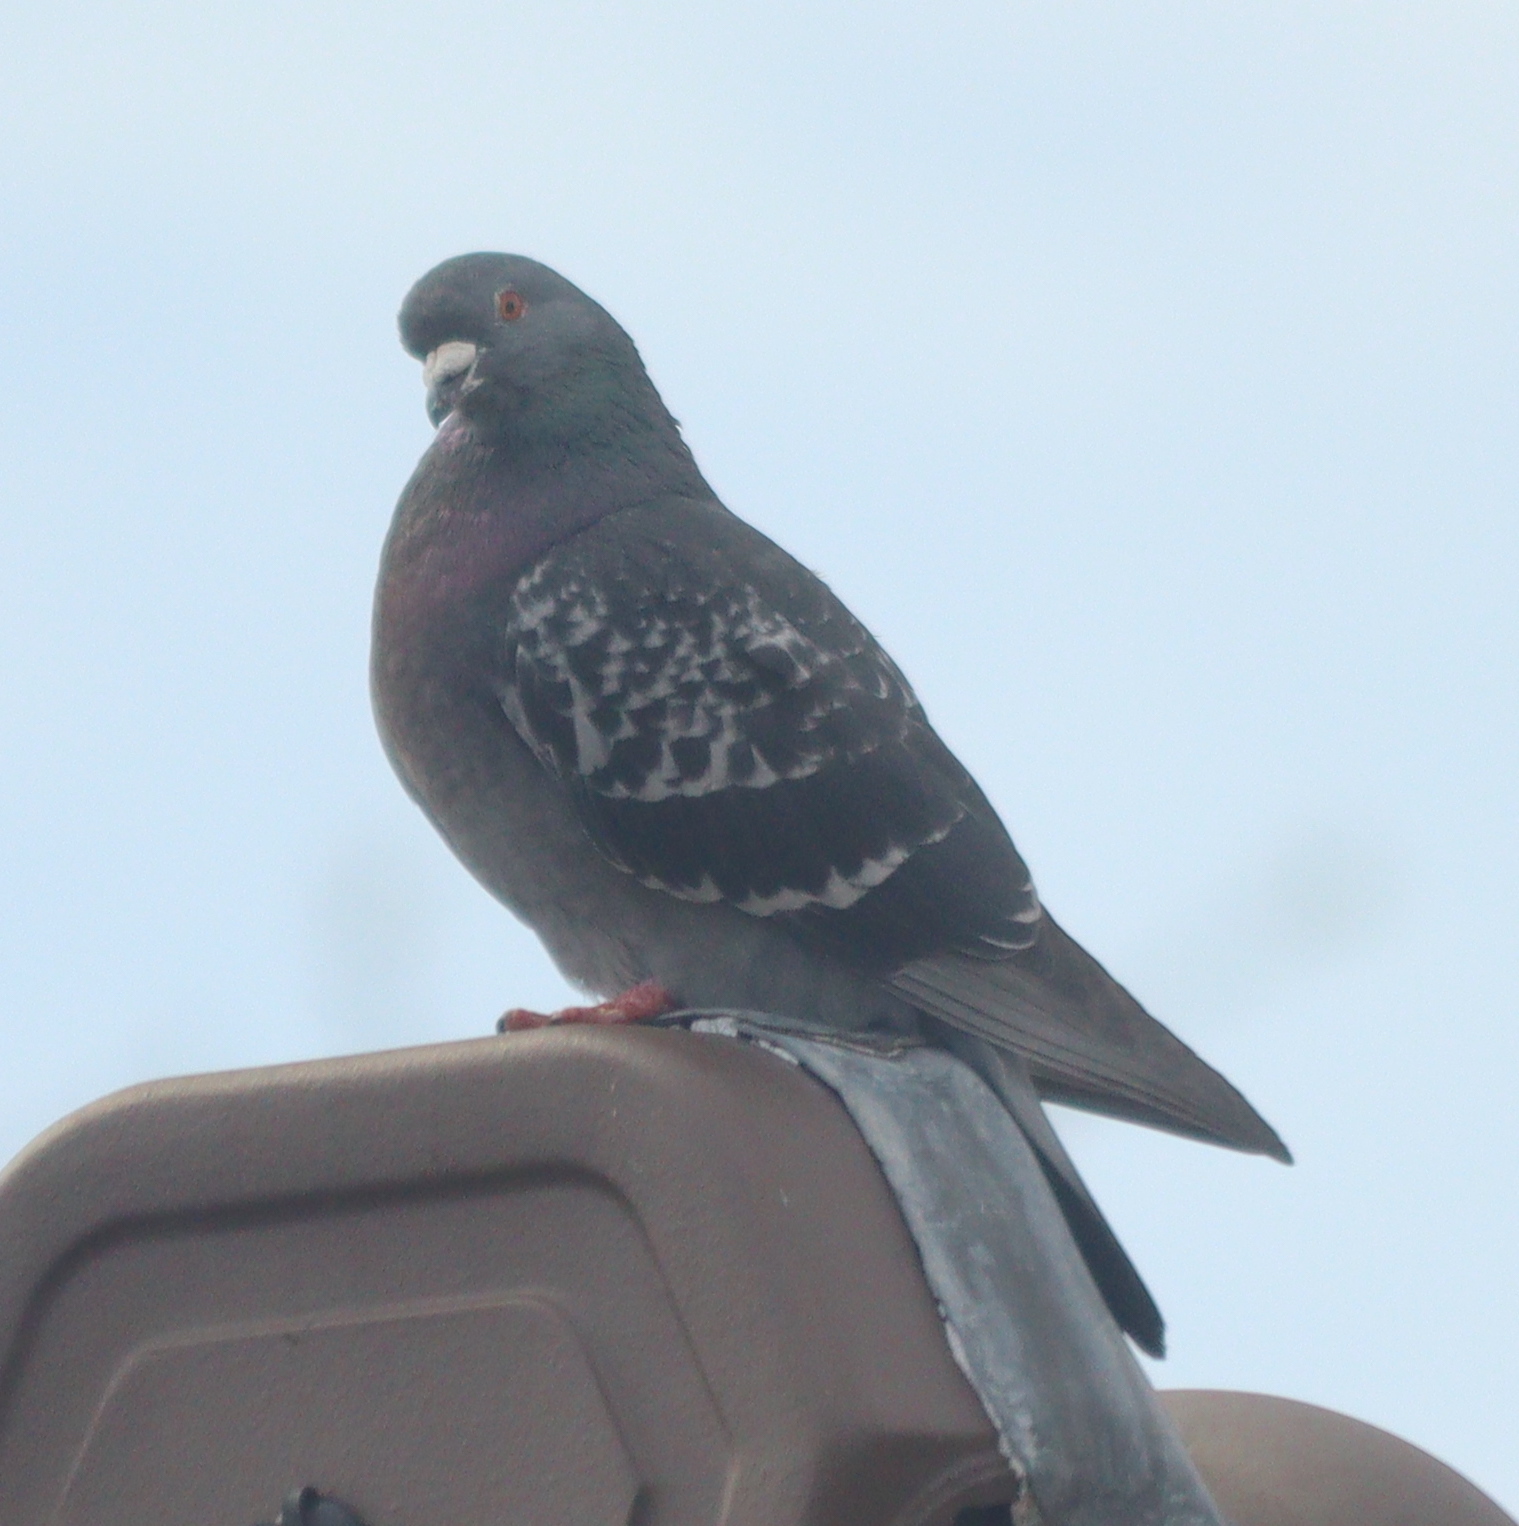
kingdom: Animalia
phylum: Chordata
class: Aves
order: Columbiformes
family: Columbidae
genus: Columba
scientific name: Columba livia
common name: Rock pigeon
